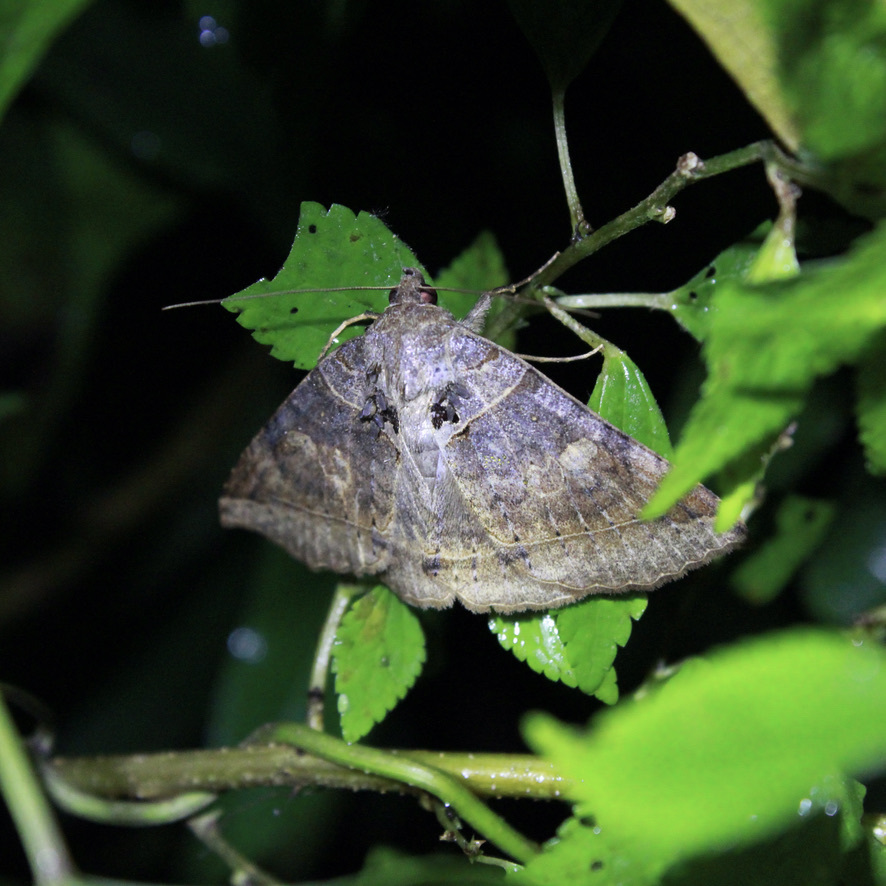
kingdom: Animalia
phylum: Arthropoda
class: Insecta
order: Lepidoptera
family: Erebidae
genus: Celiptera
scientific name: Celiptera levina
